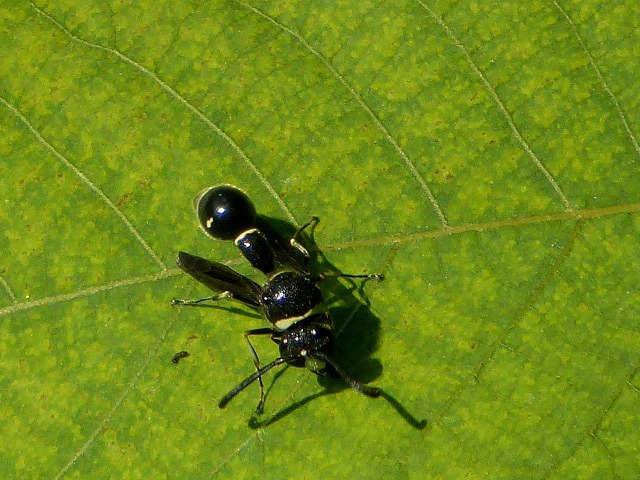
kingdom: Animalia
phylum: Arthropoda
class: Insecta
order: Hymenoptera
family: Vespidae
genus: Eumenes
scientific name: Eumenes fraternus
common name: Fraternal potter wasp
